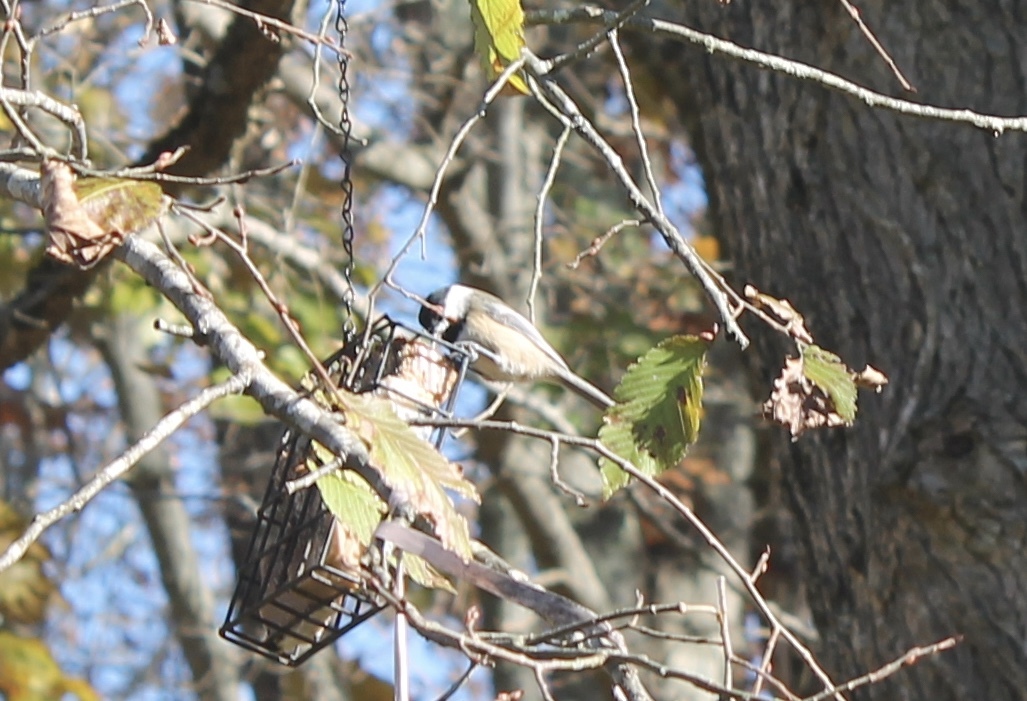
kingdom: Animalia
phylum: Chordata
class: Aves
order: Passeriformes
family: Paridae
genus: Poecile
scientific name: Poecile atricapillus
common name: Black-capped chickadee
